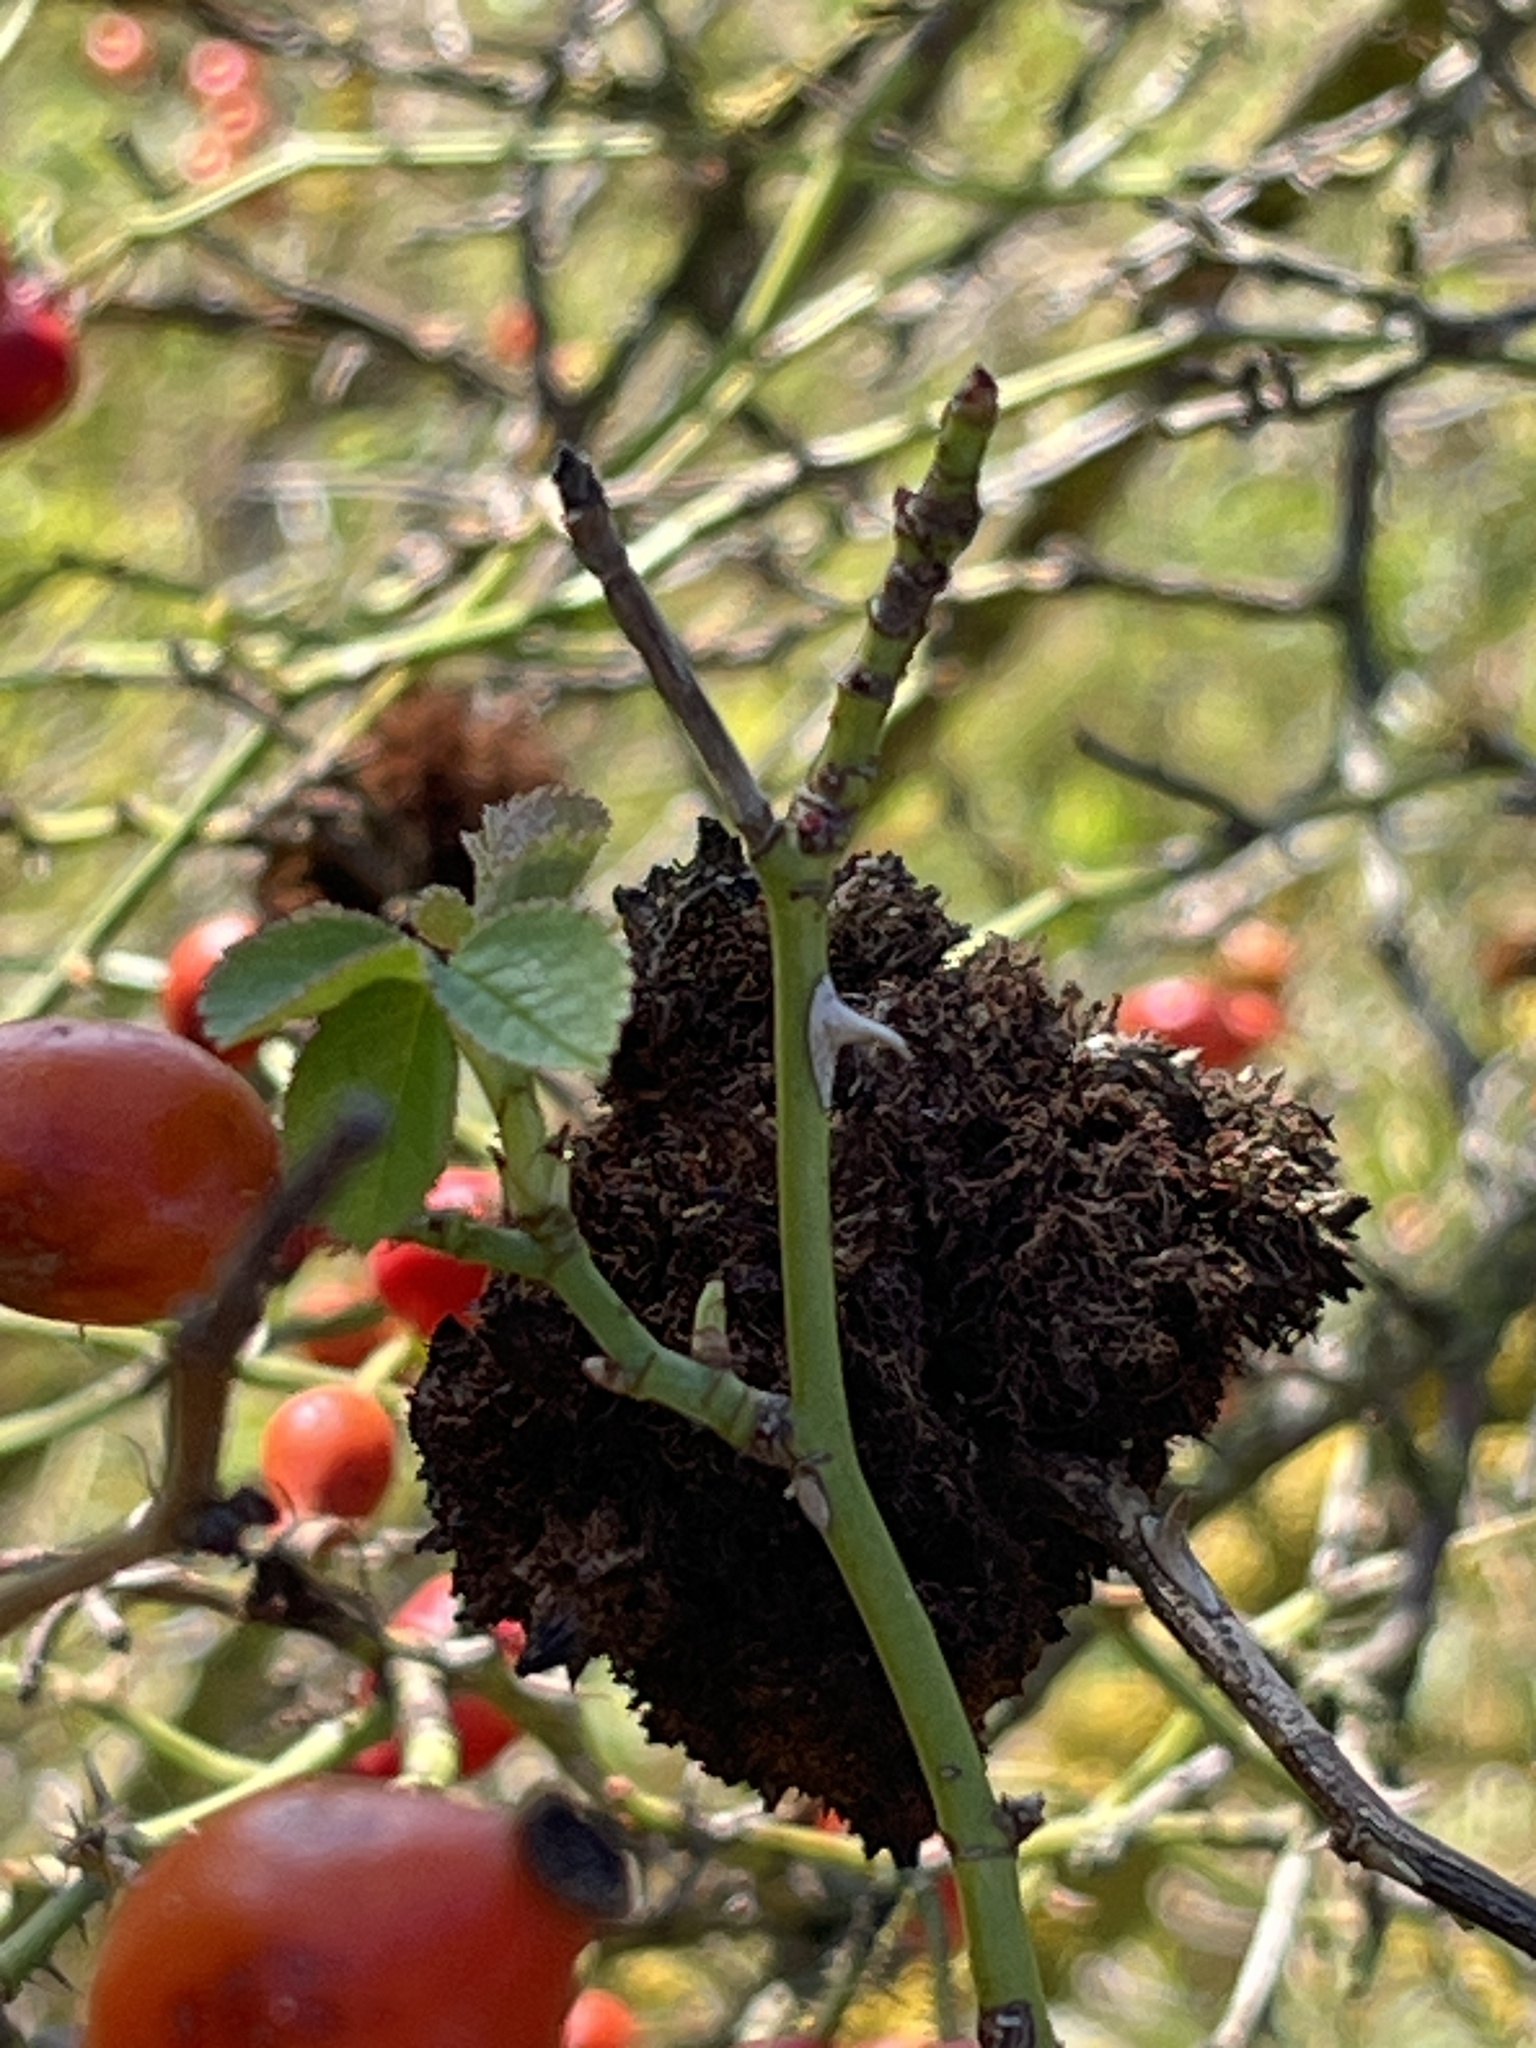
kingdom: Animalia
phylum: Arthropoda
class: Insecta
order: Hymenoptera
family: Cynipidae
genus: Diplolepis
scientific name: Diplolepis rosae
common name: Bedeguar gall
